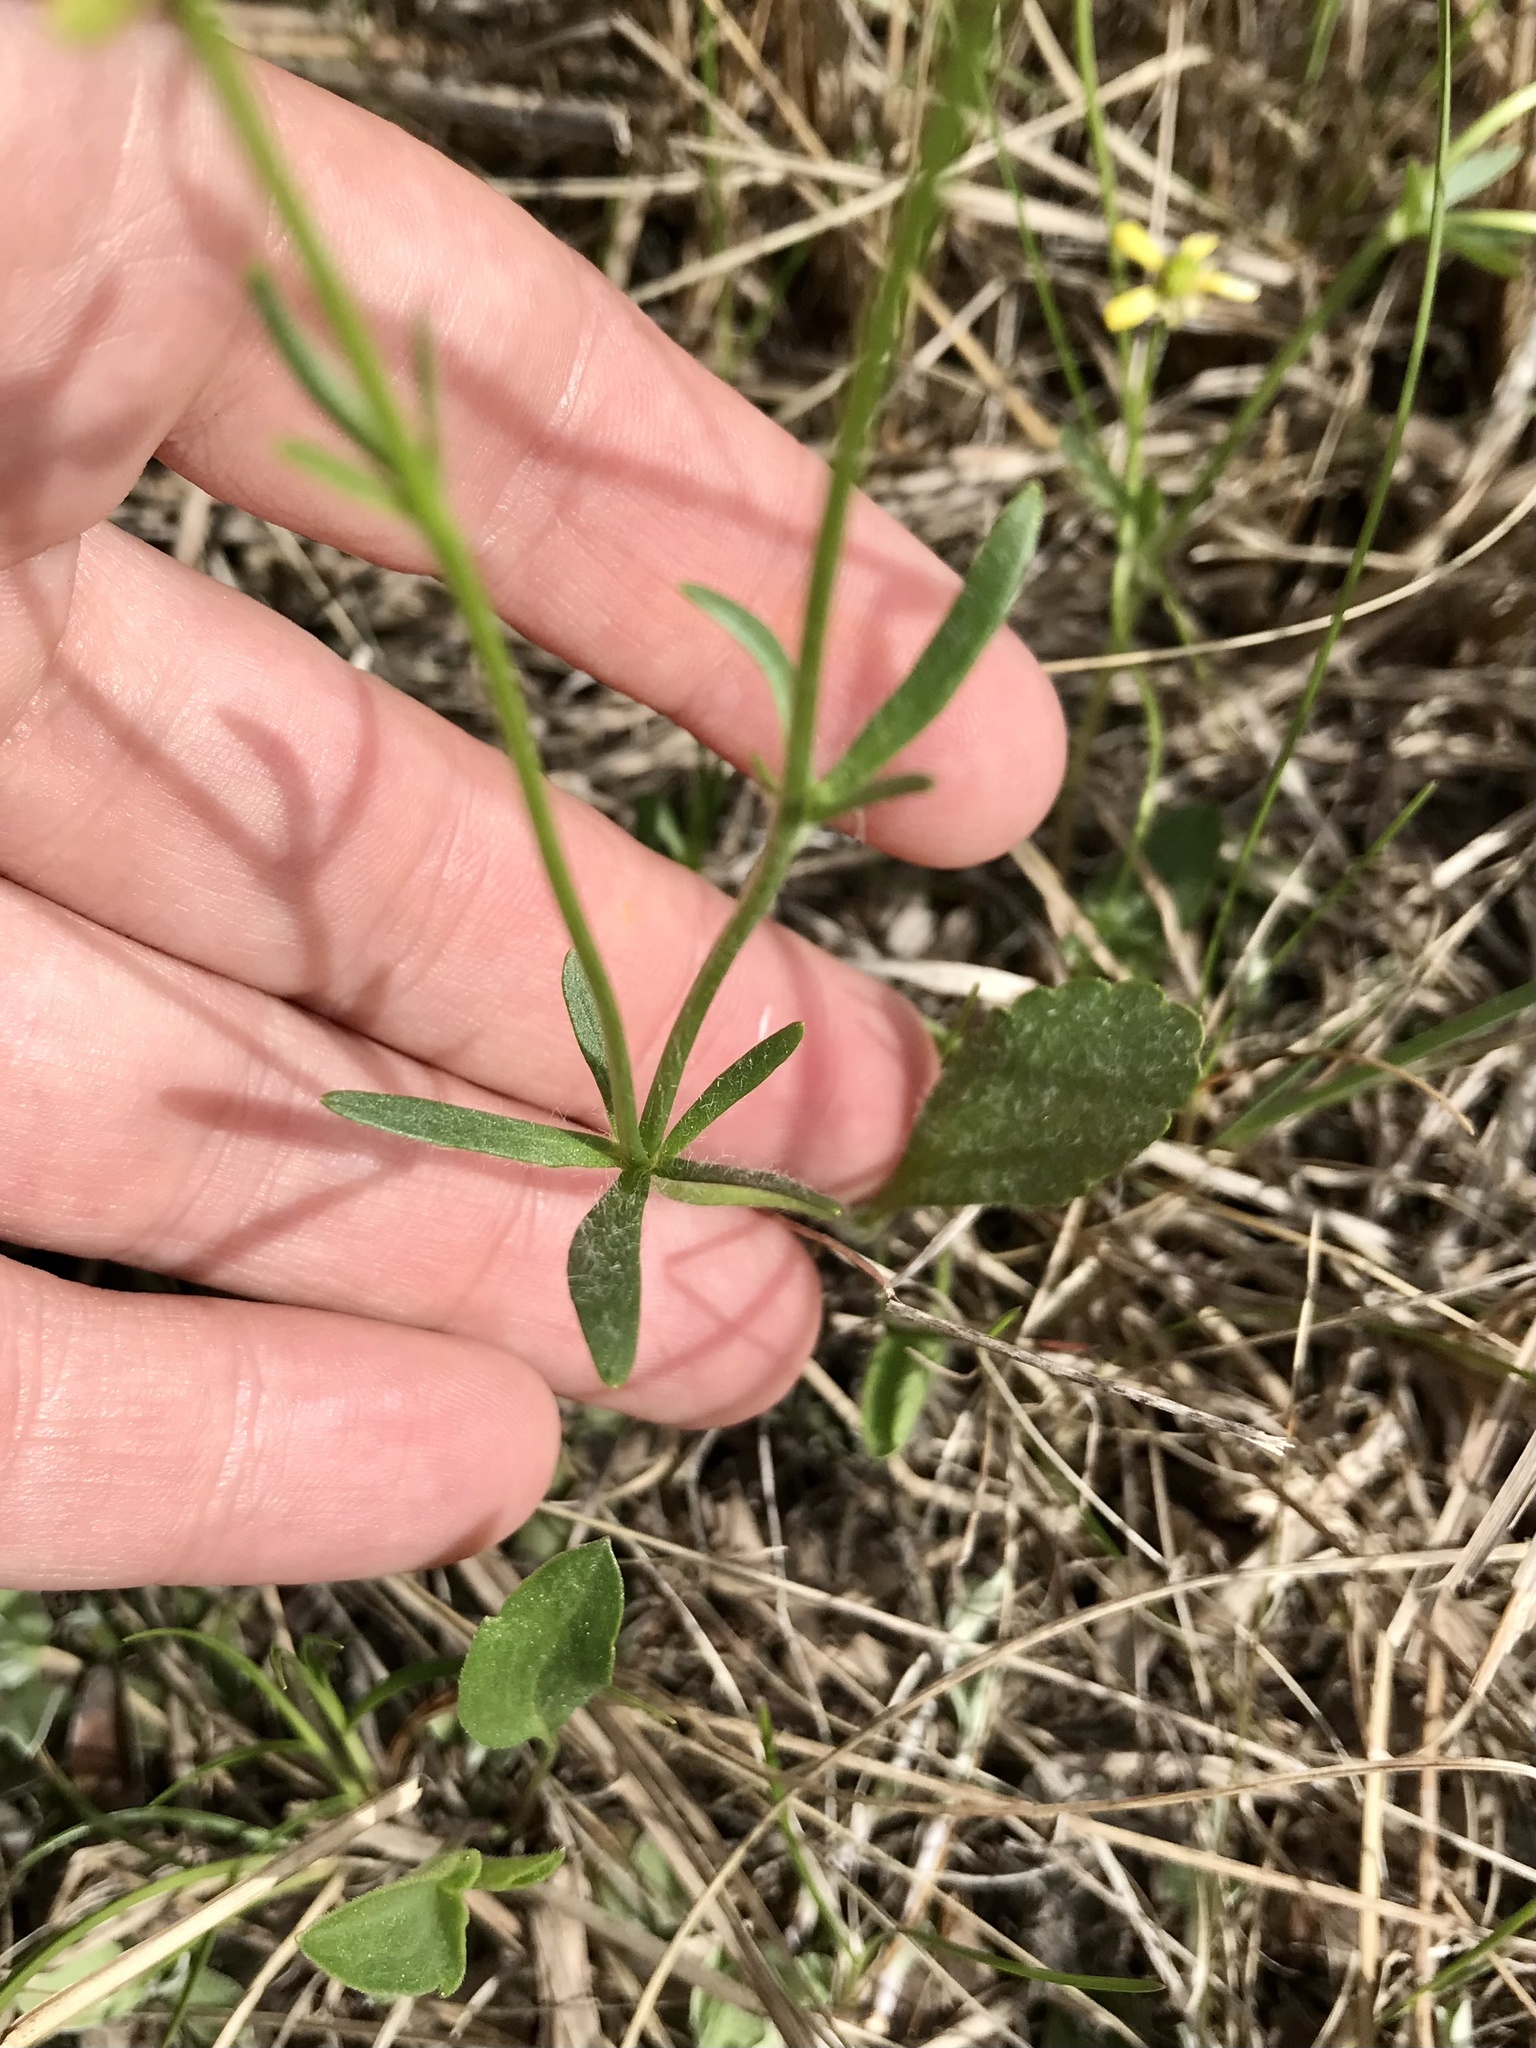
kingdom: Plantae
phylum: Tracheophyta
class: Magnoliopsida
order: Ranunculales
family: Ranunculaceae
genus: Ranunculus
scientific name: Ranunculus rhomboideus
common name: Prairie buttercup
